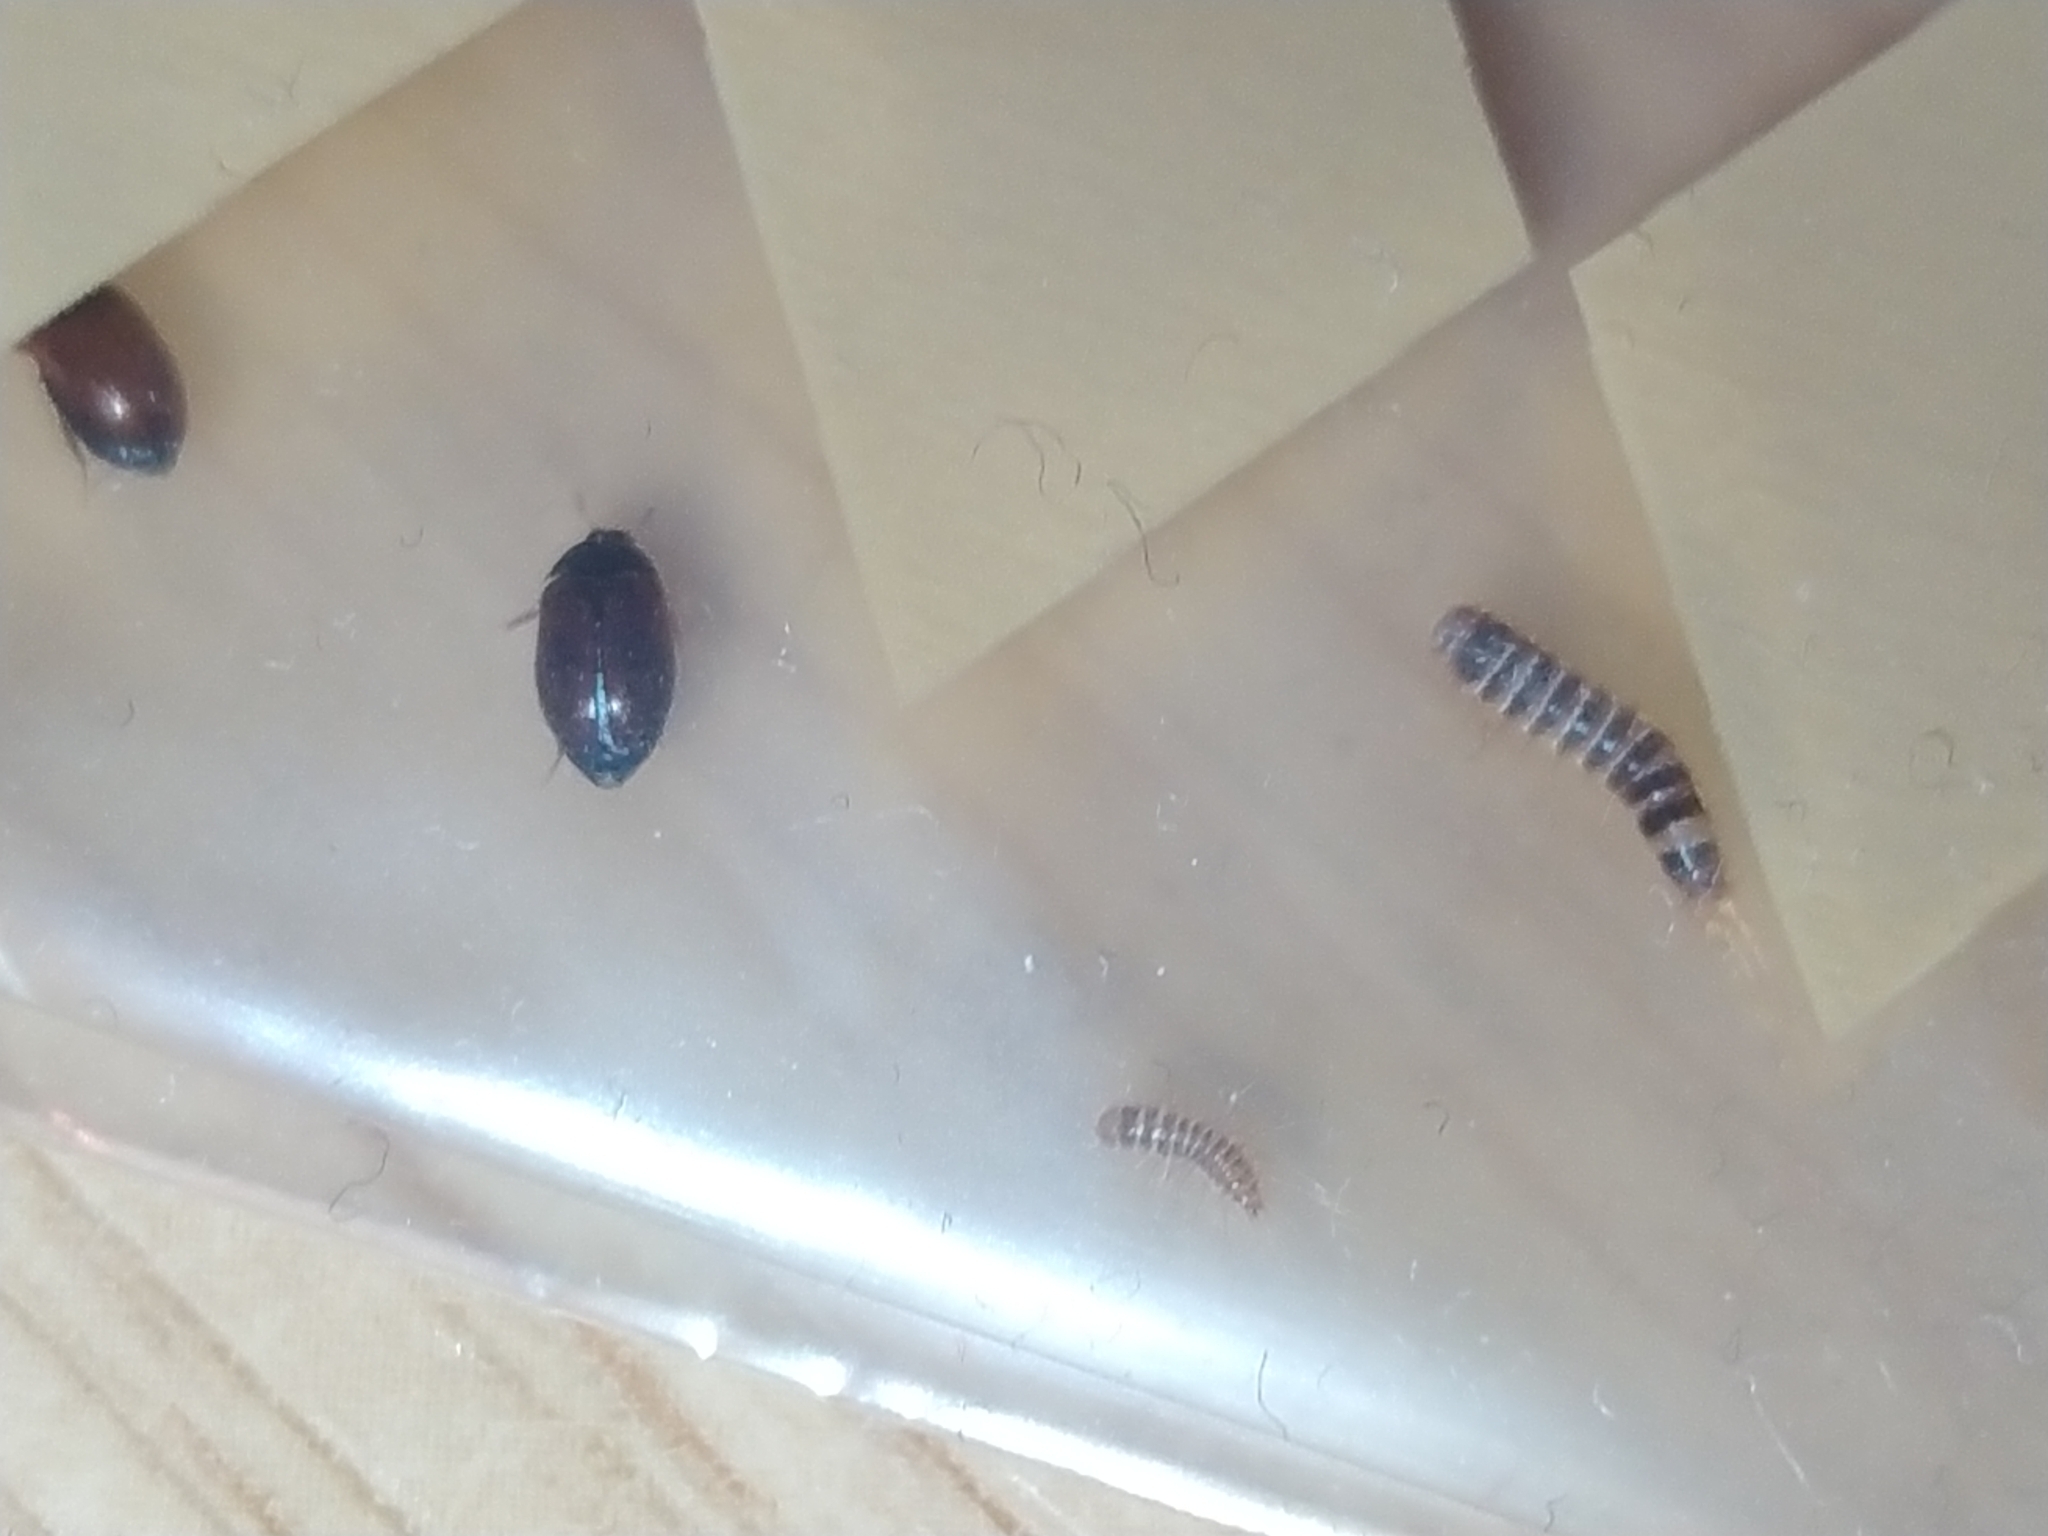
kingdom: Animalia
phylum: Arthropoda
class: Insecta
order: Coleoptera
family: Dermestidae
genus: Attagenus
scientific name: Attagenus smirnovi
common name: Brown carpet beetle
